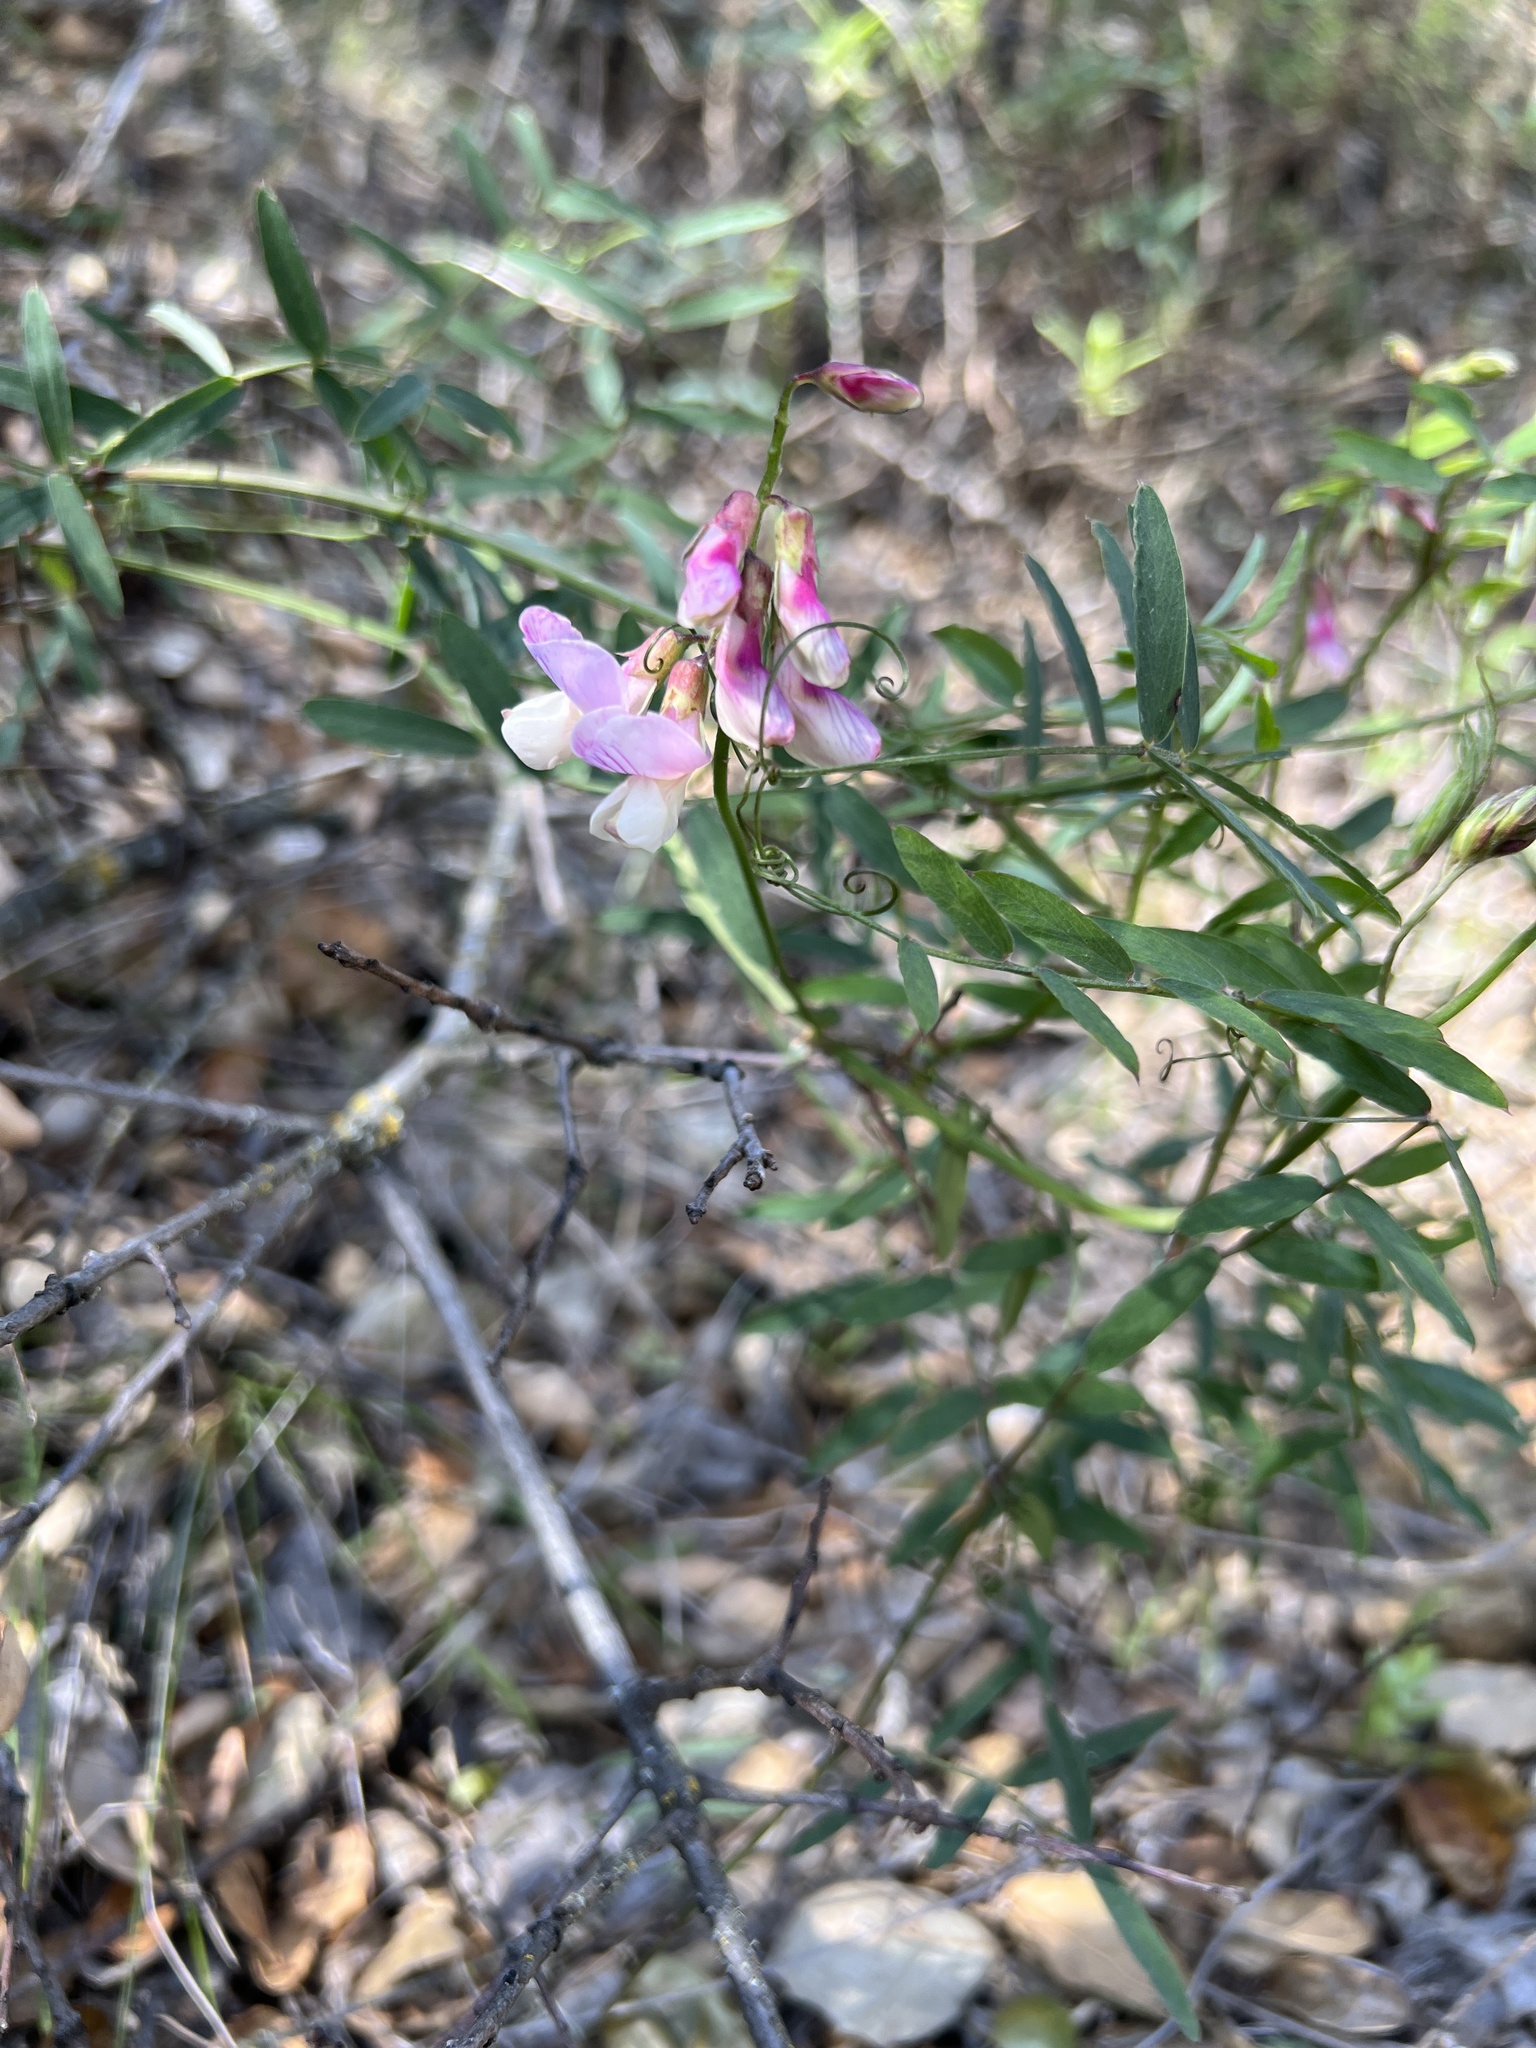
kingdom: Plantae
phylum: Tracheophyta
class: Magnoliopsida
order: Fabales
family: Fabaceae
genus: Lathyrus
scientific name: Lathyrus vestitus
